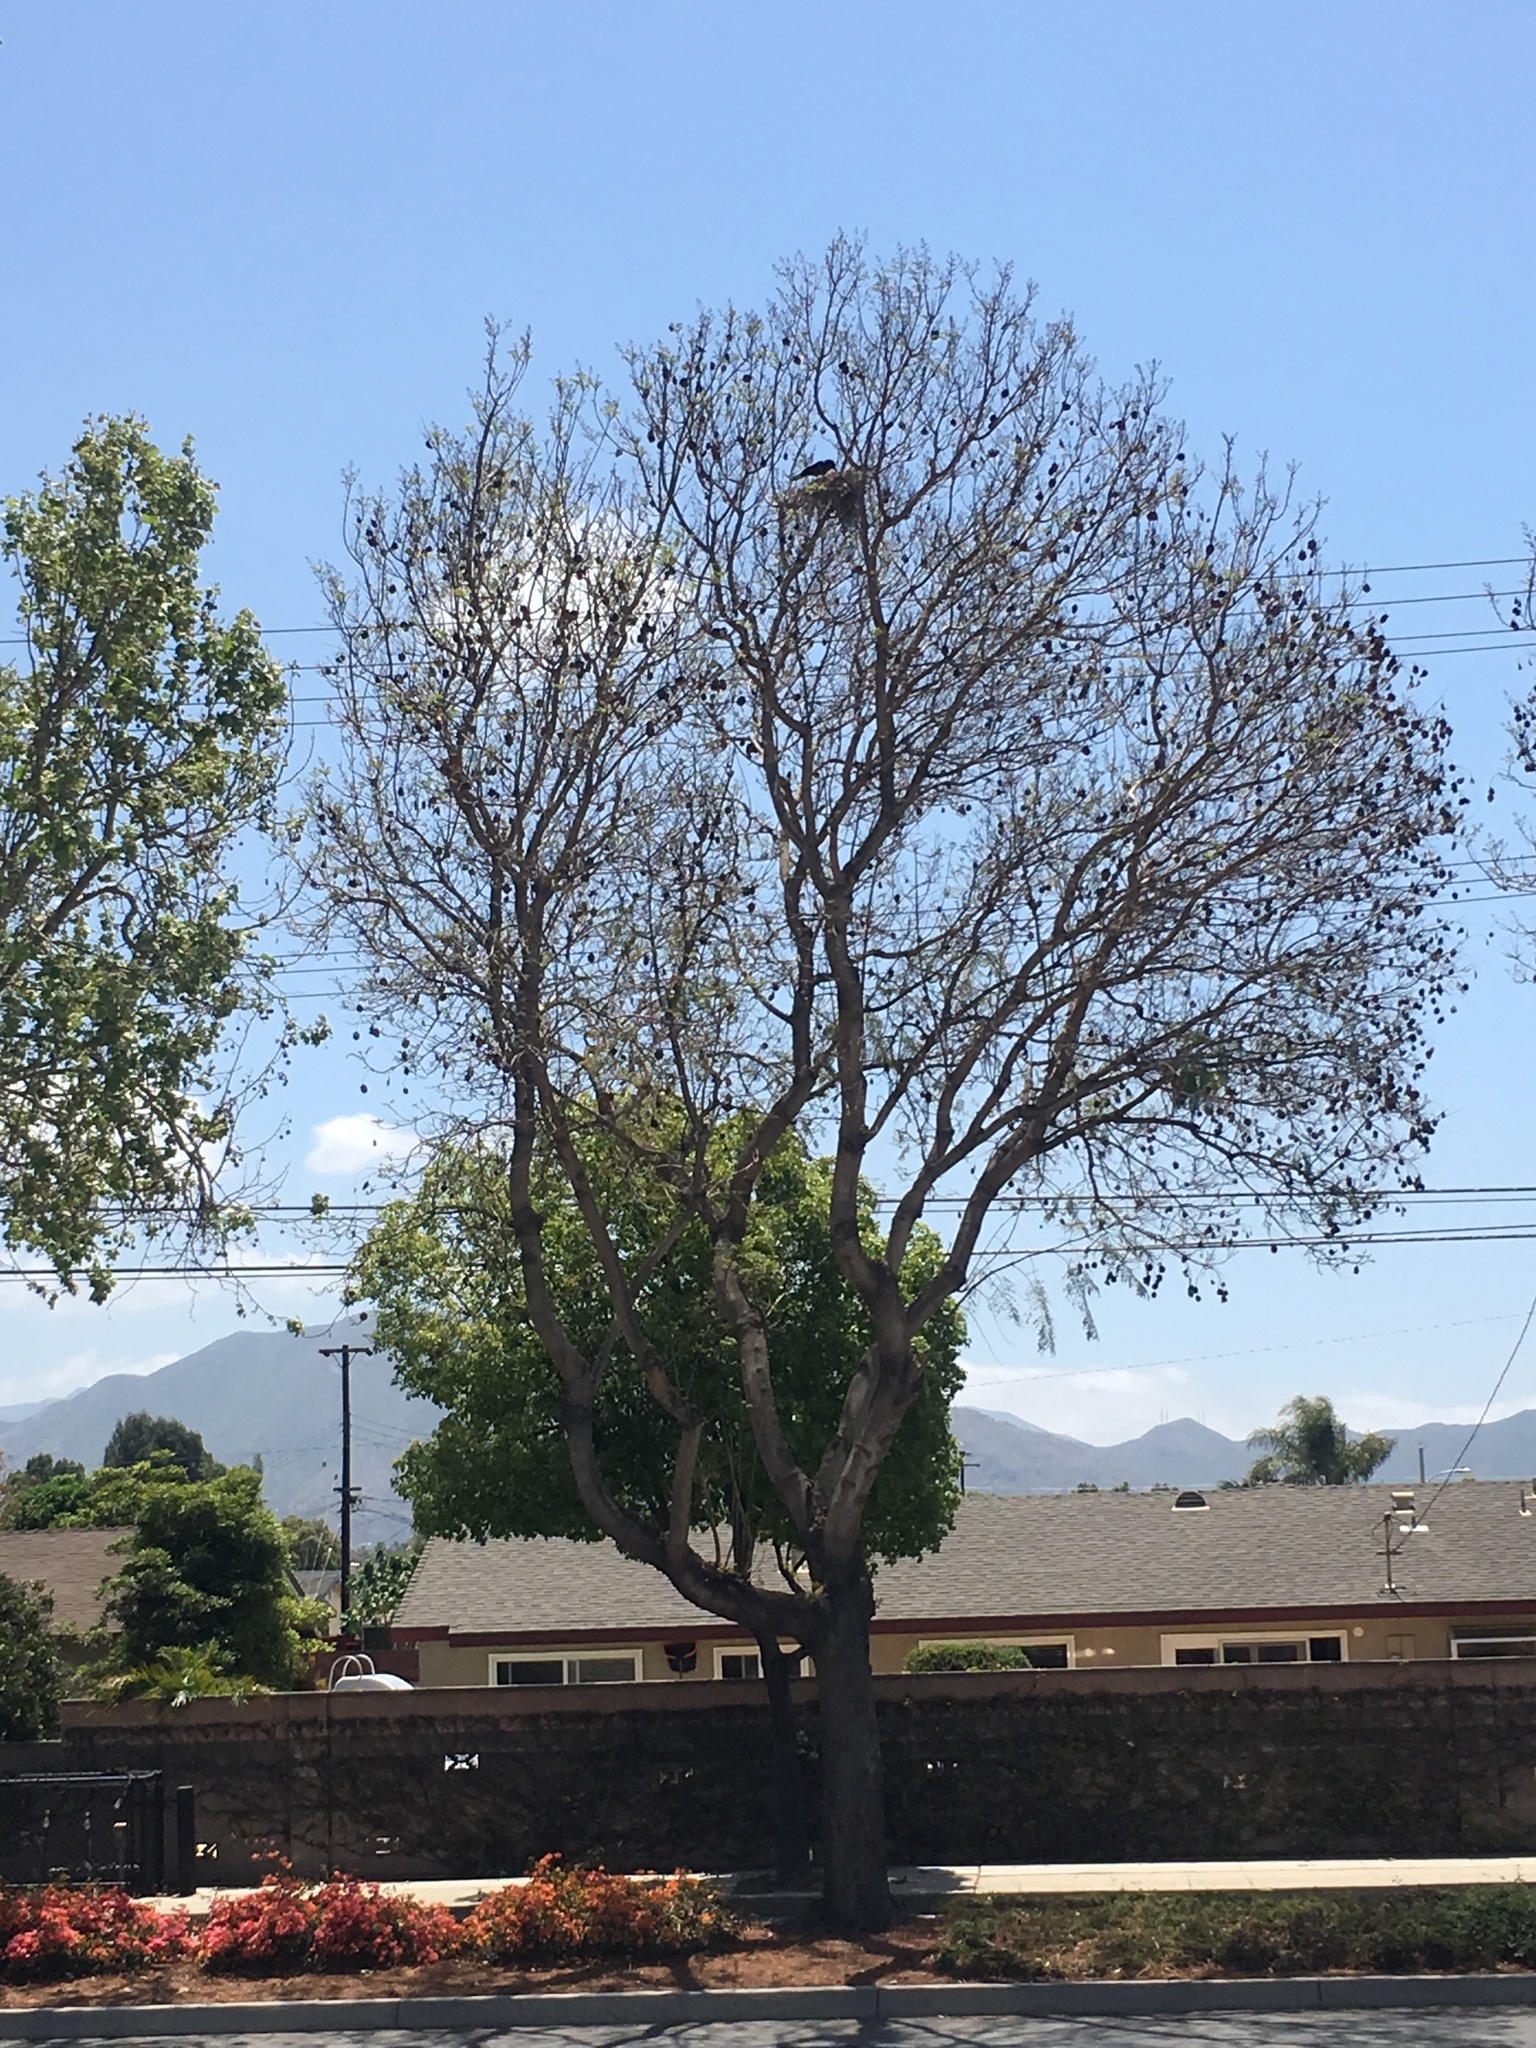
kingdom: Animalia
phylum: Chordata
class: Aves
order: Passeriformes
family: Corvidae
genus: Corvus
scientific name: Corvus brachyrhynchos
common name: American crow
